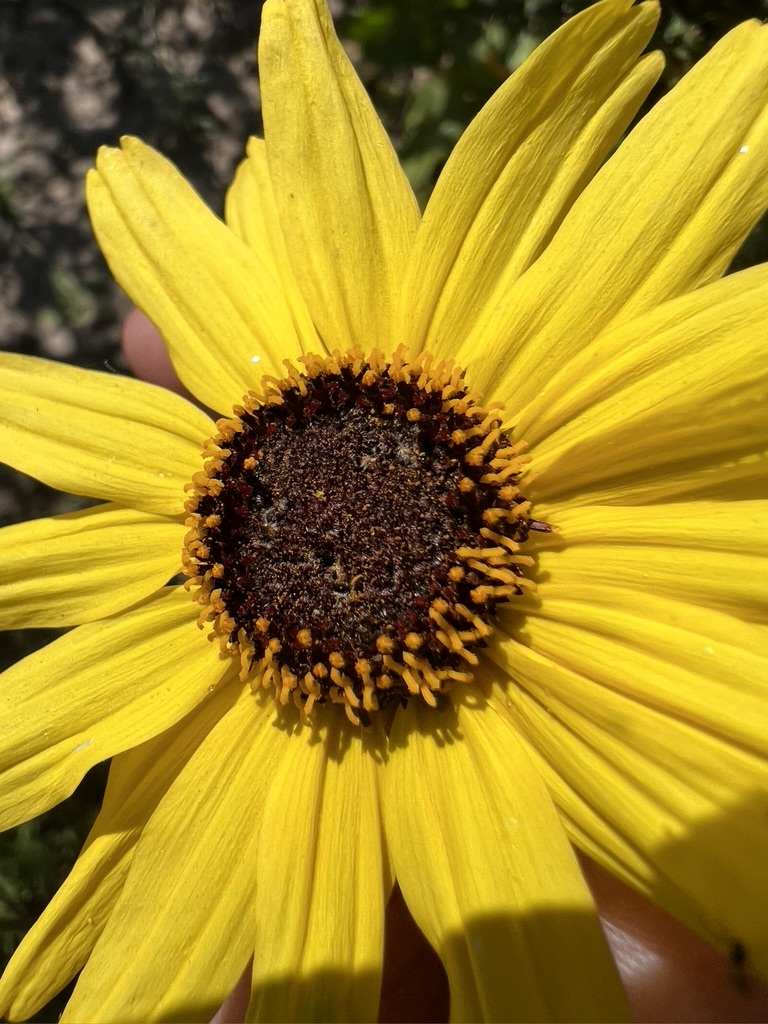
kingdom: Plantae
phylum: Tracheophyta
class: Magnoliopsida
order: Asterales
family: Asteraceae
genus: Encelia
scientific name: Encelia californica
